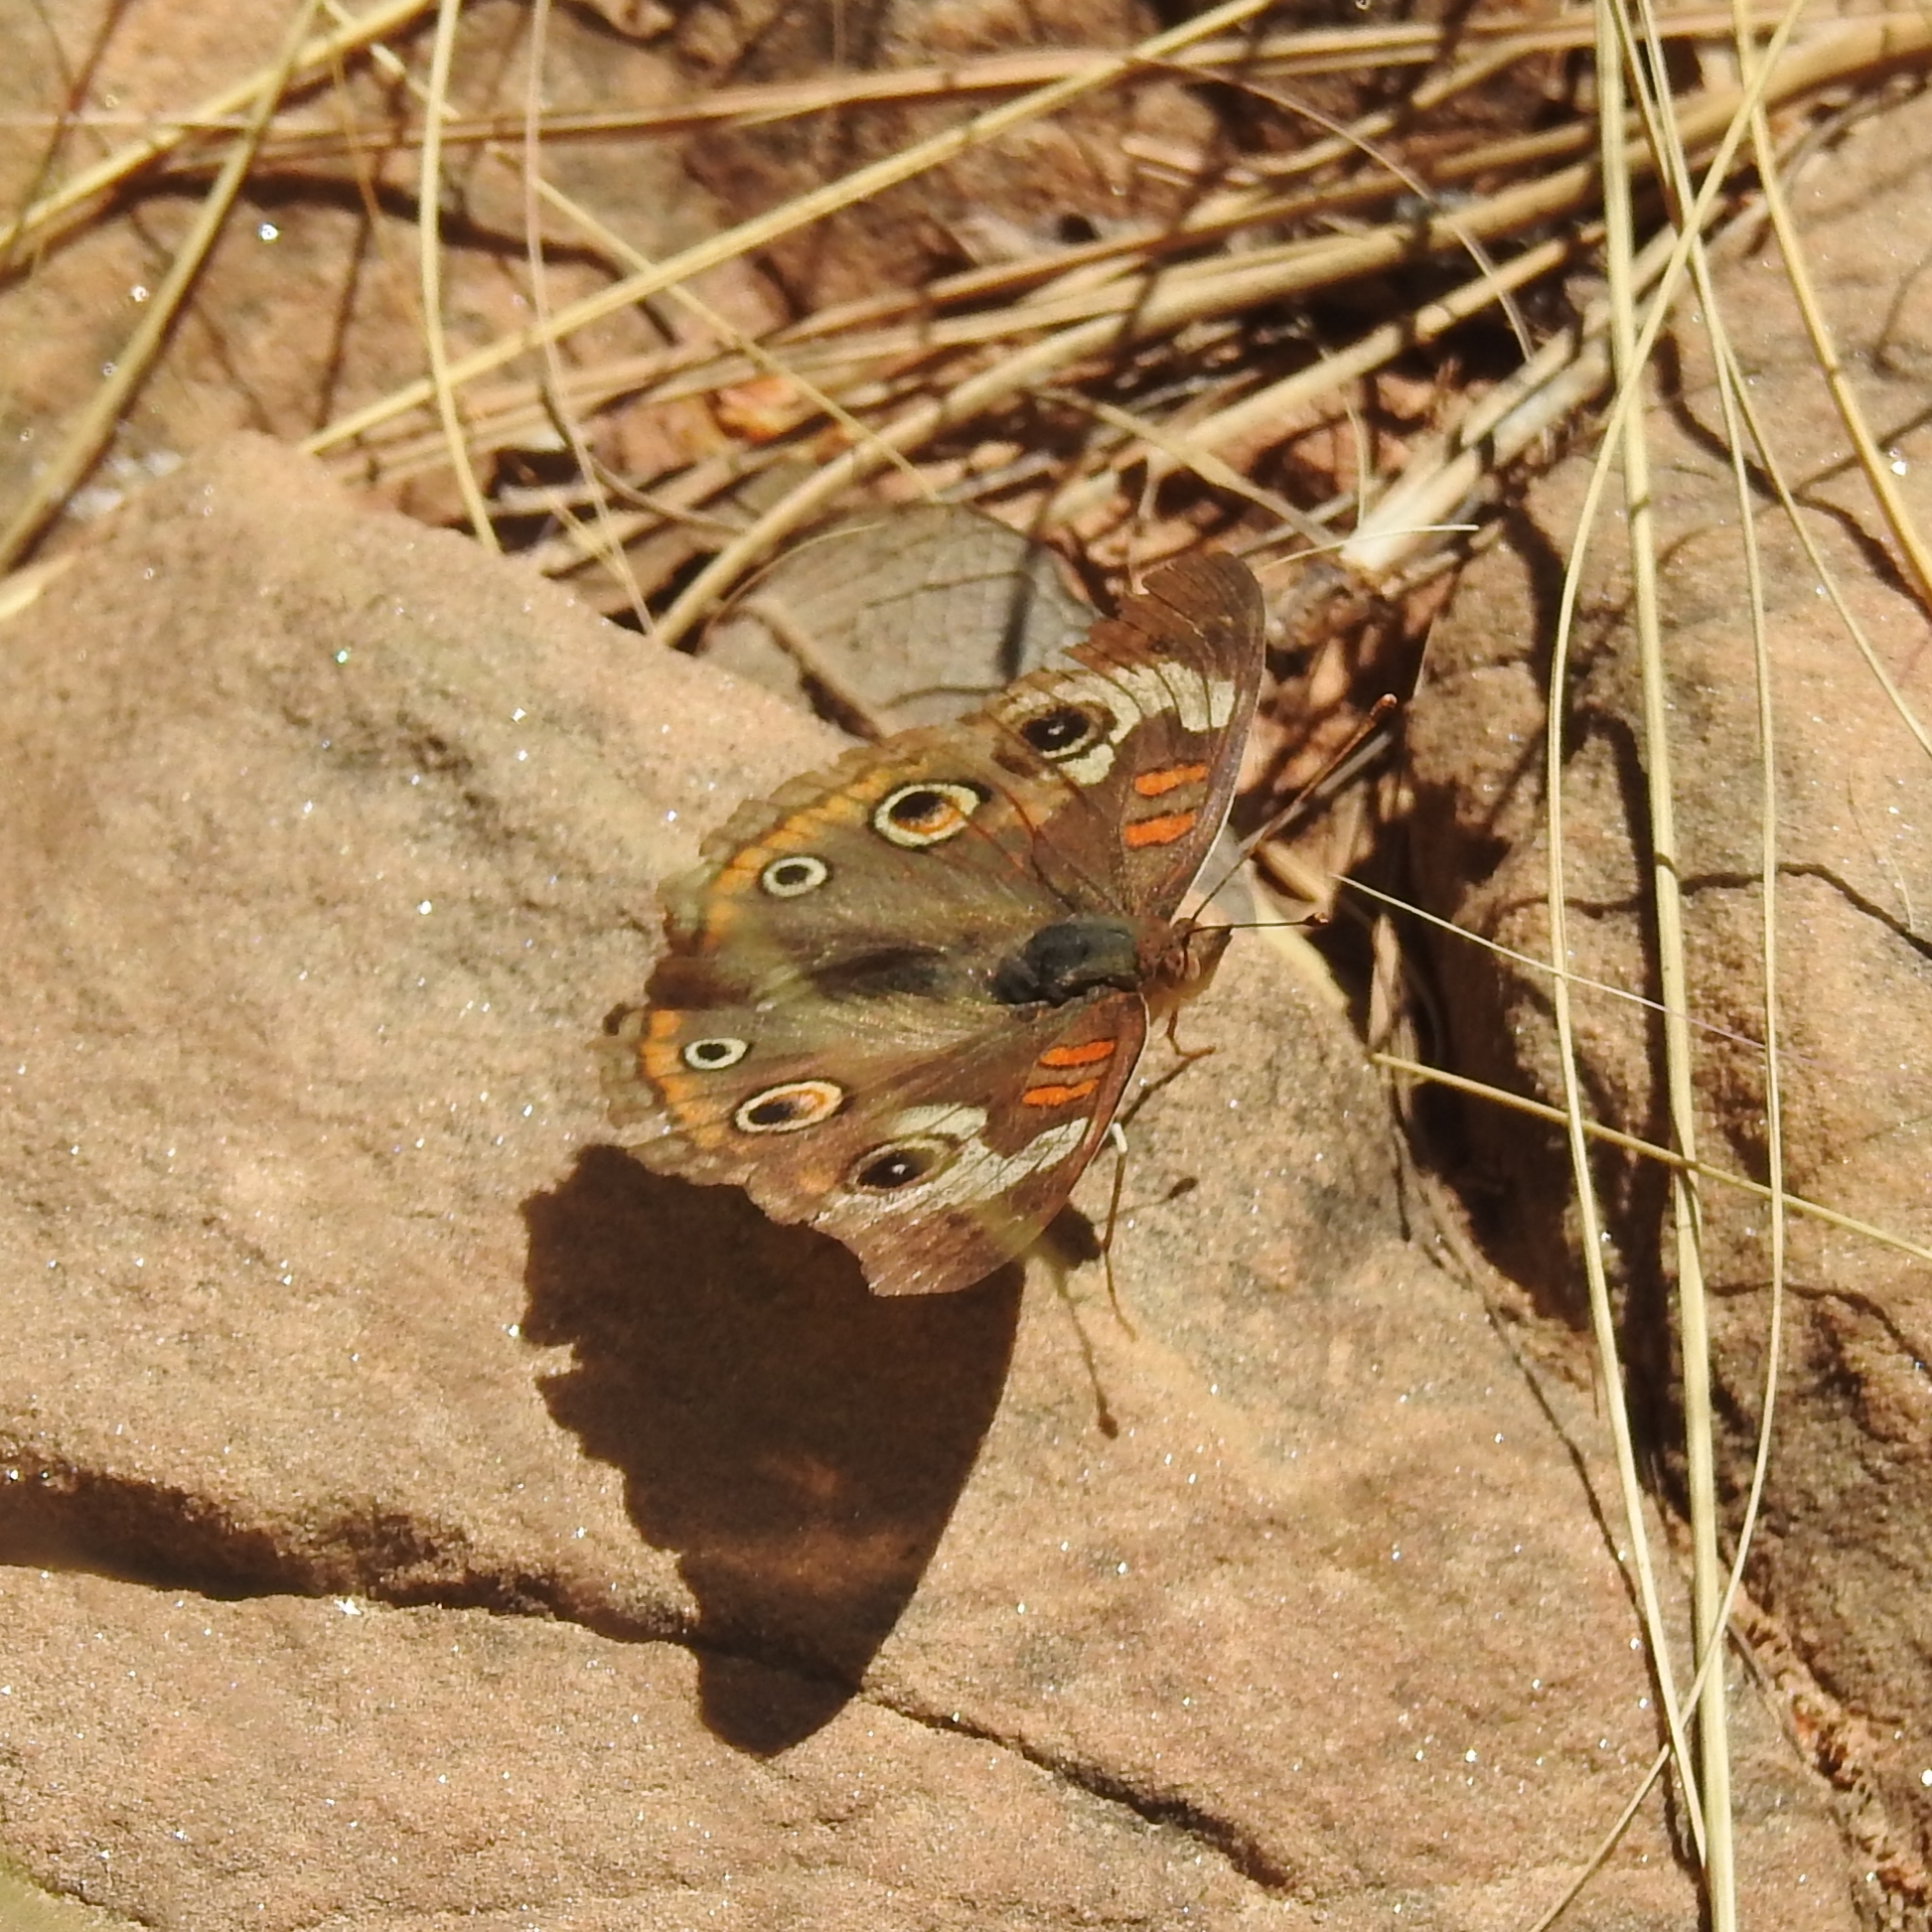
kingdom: Animalia
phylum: Arthropoda
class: Insecta
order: Lepidoptera
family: Nymphalidae
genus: Junonia
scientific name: Junonia grisea
